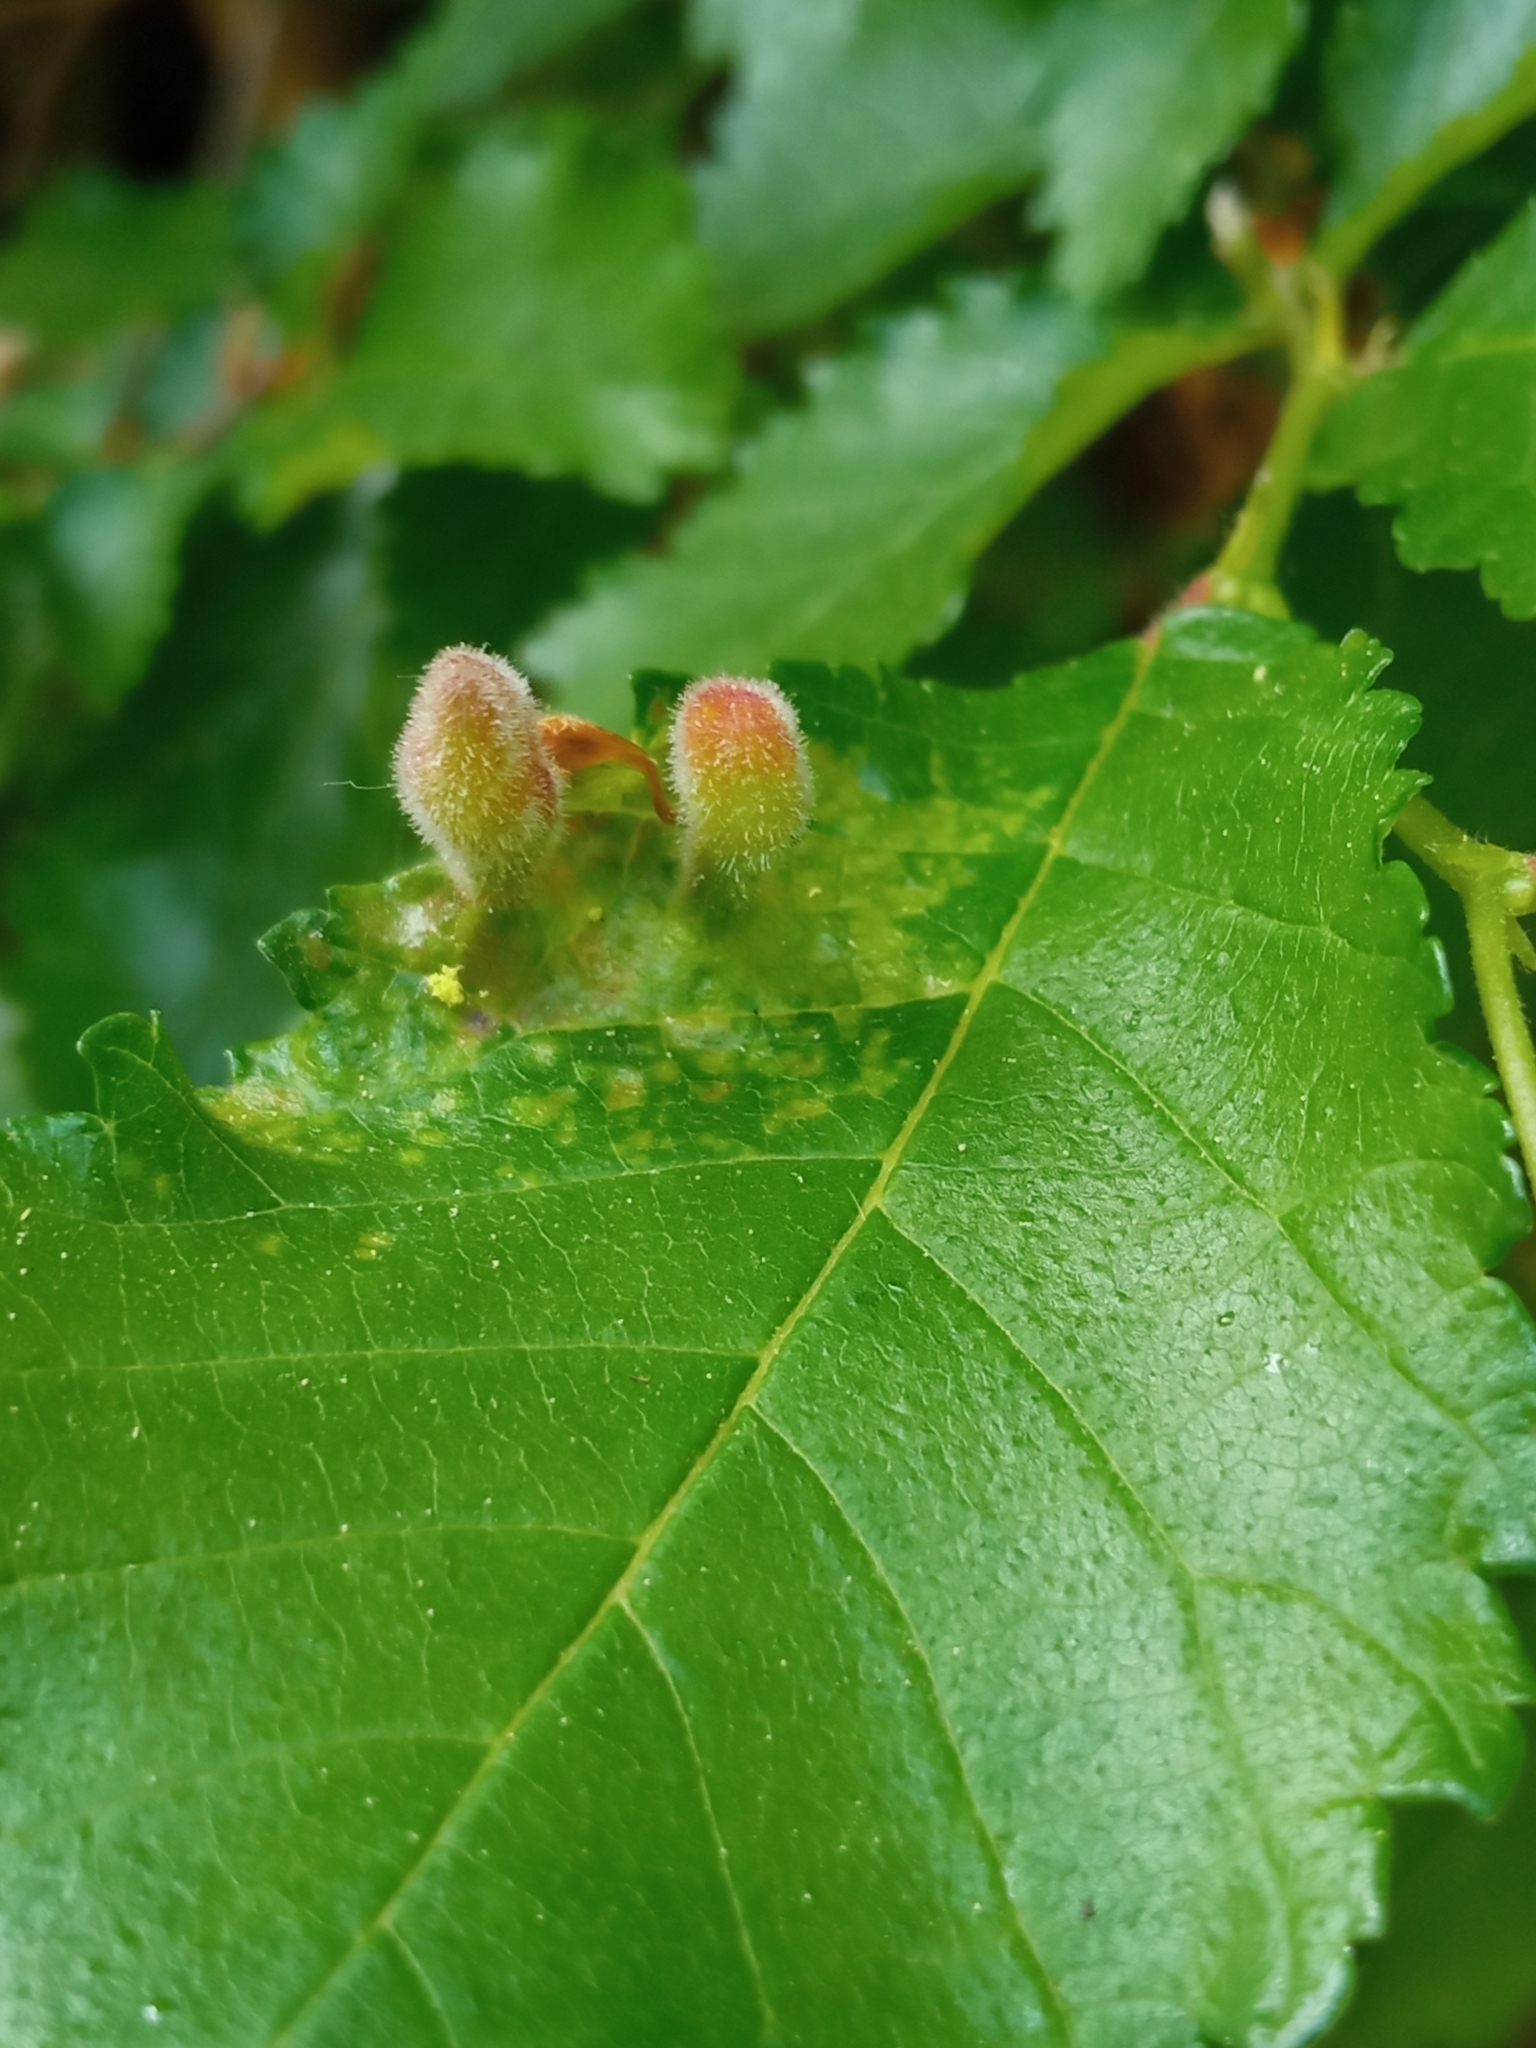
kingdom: Animalia
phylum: Arthropoda
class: Insecta
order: Hemiptera
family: Aphididae
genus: Tetraneura
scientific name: Tetraneura nigriabdominalis
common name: Aphid
